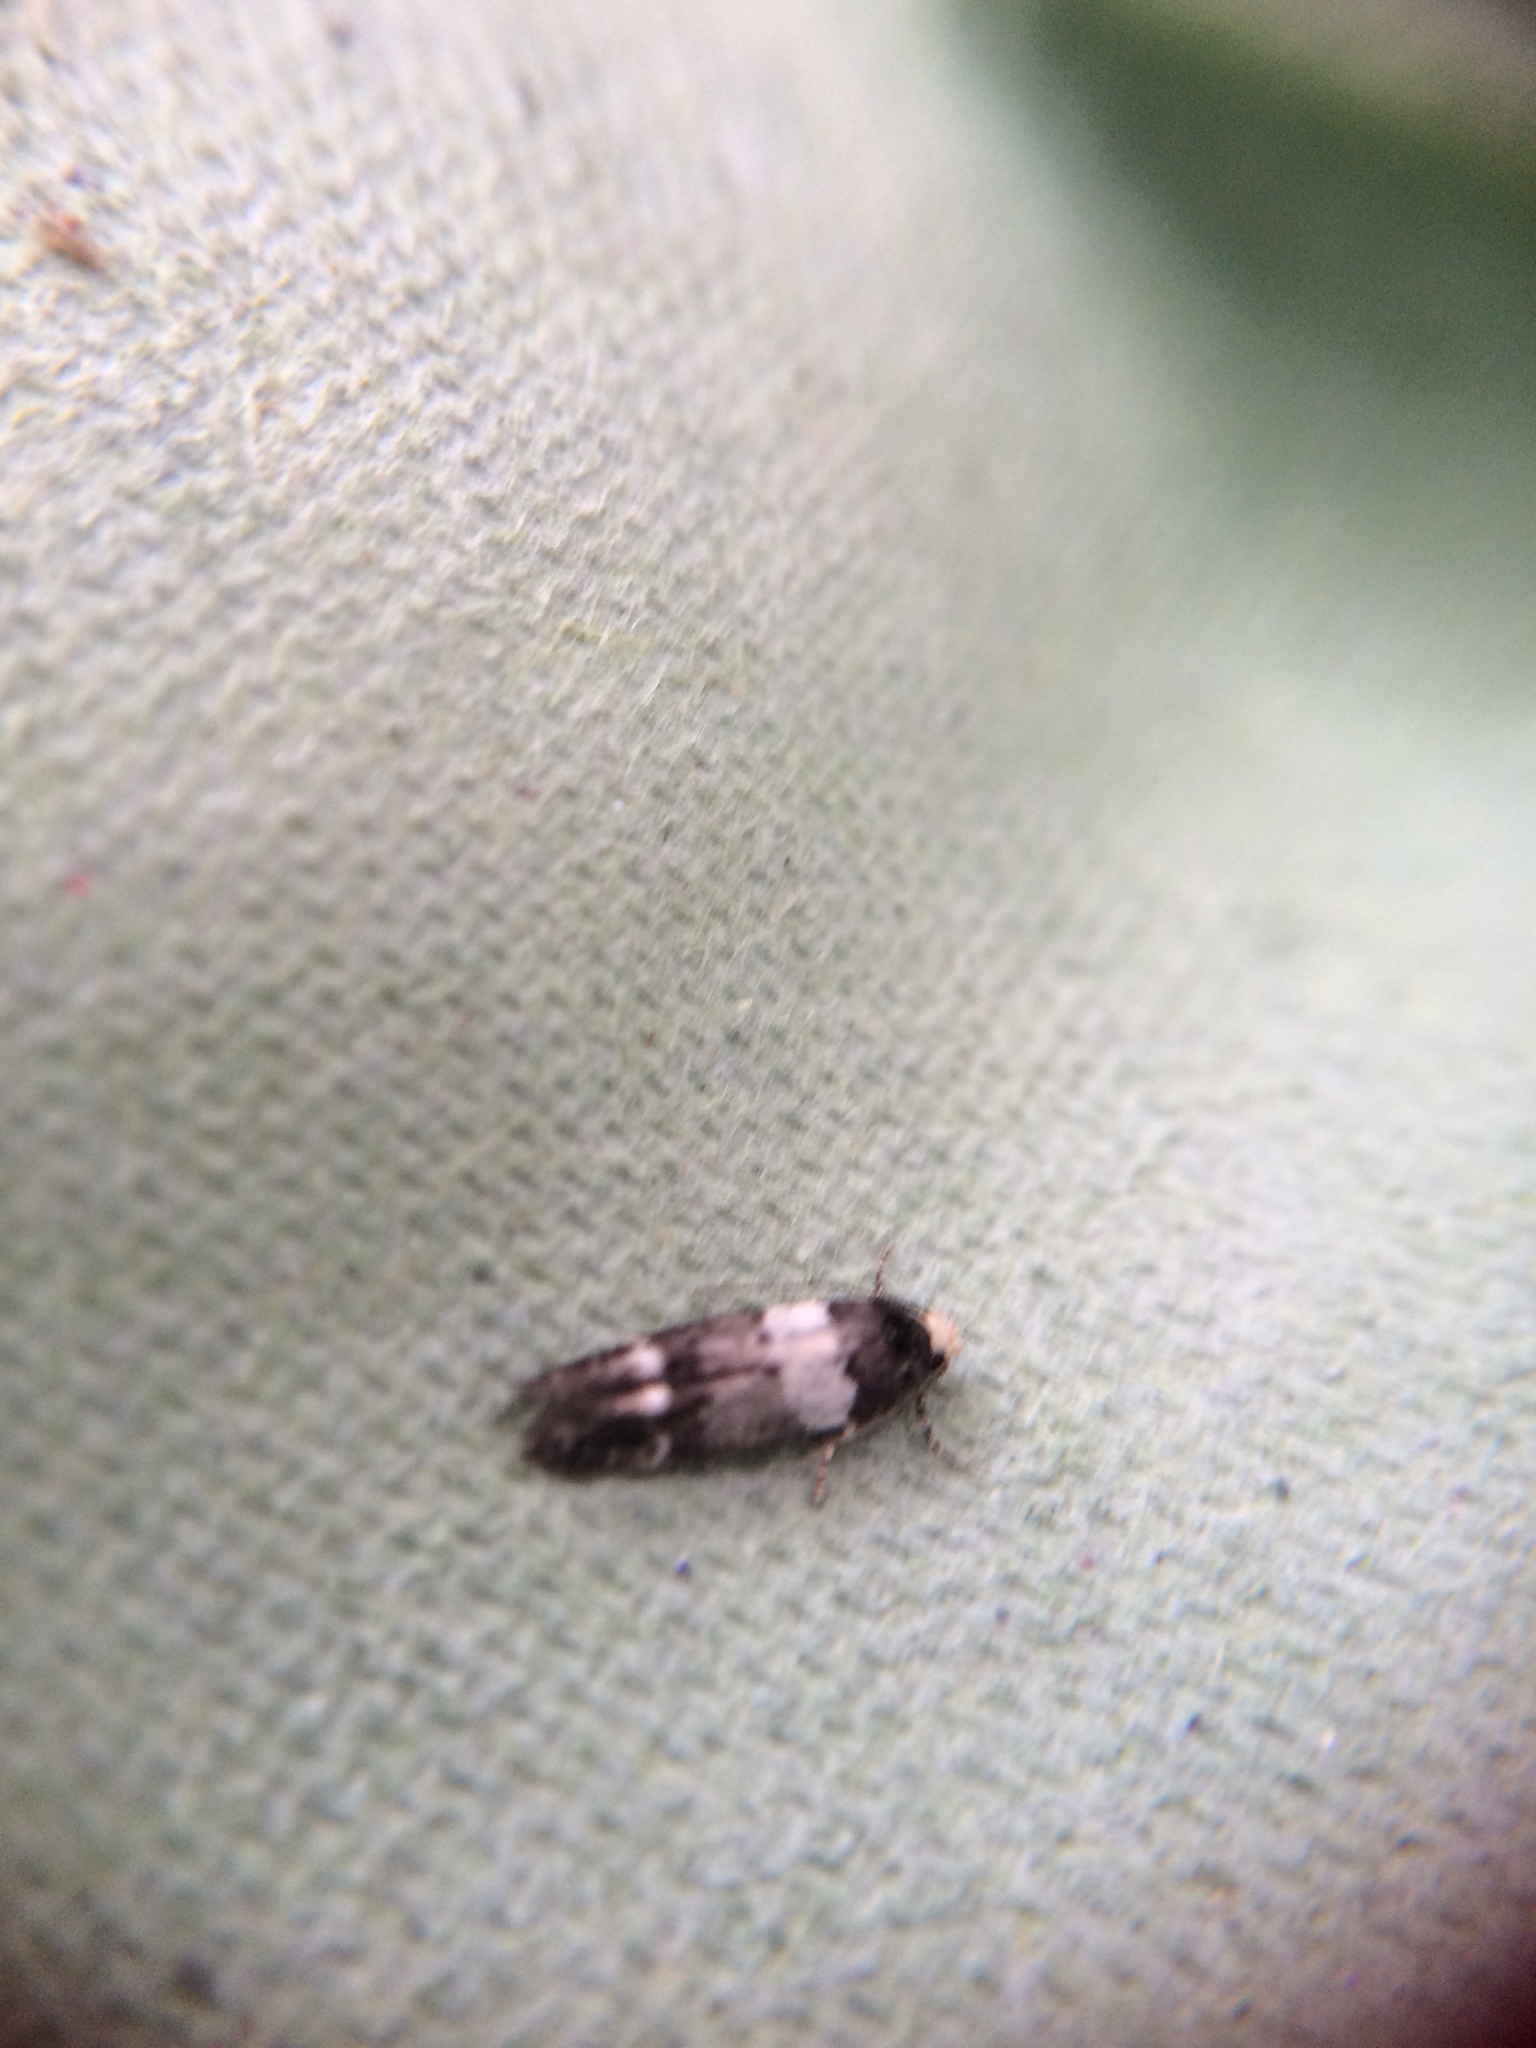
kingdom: Animalia
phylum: Arthropoda
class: Insecta
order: Lepidoptera
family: Gelechiidae
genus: Recurvaria
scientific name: Recurvaria leucatella
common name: White-barred groundling
